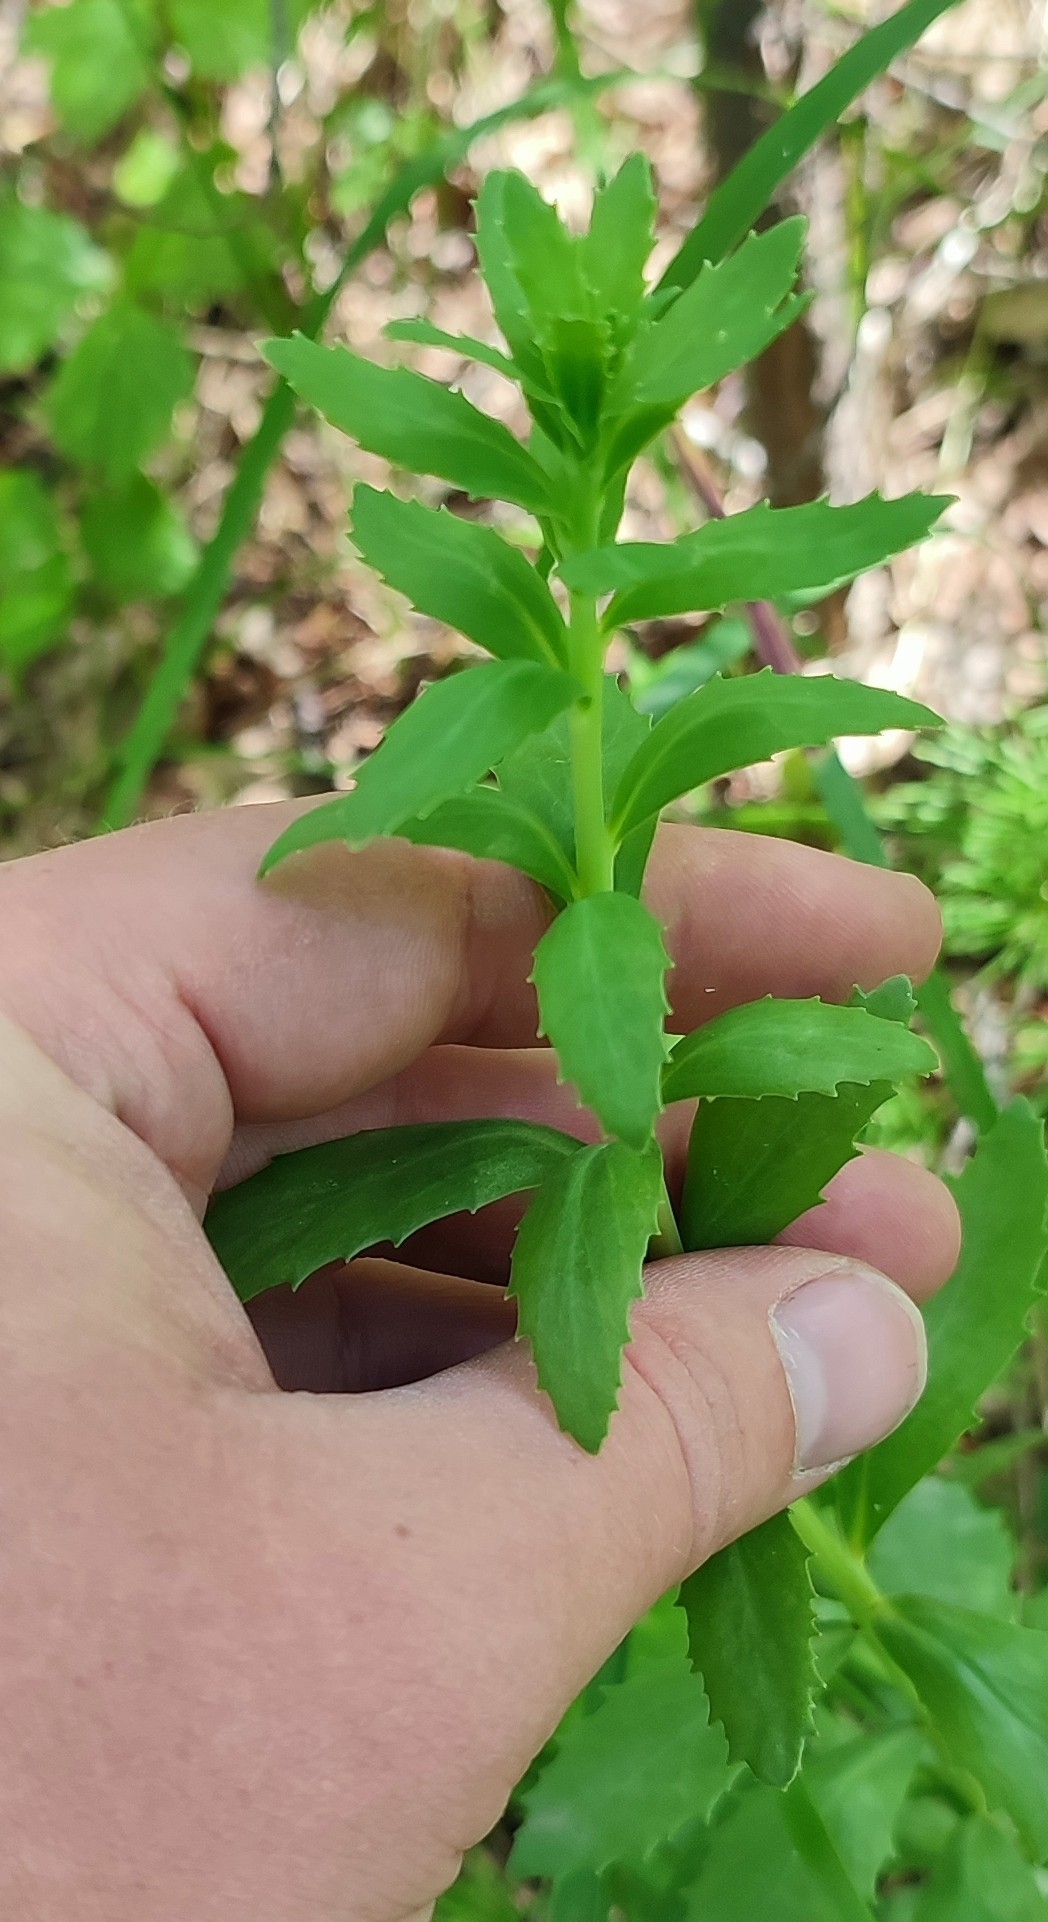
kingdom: Plantae
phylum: Tracheophyta
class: Magnoliopsida
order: Saxifragales
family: Crassulaceae
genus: Hylotelephium
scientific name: Hylotelephium telephium
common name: Live-forever
